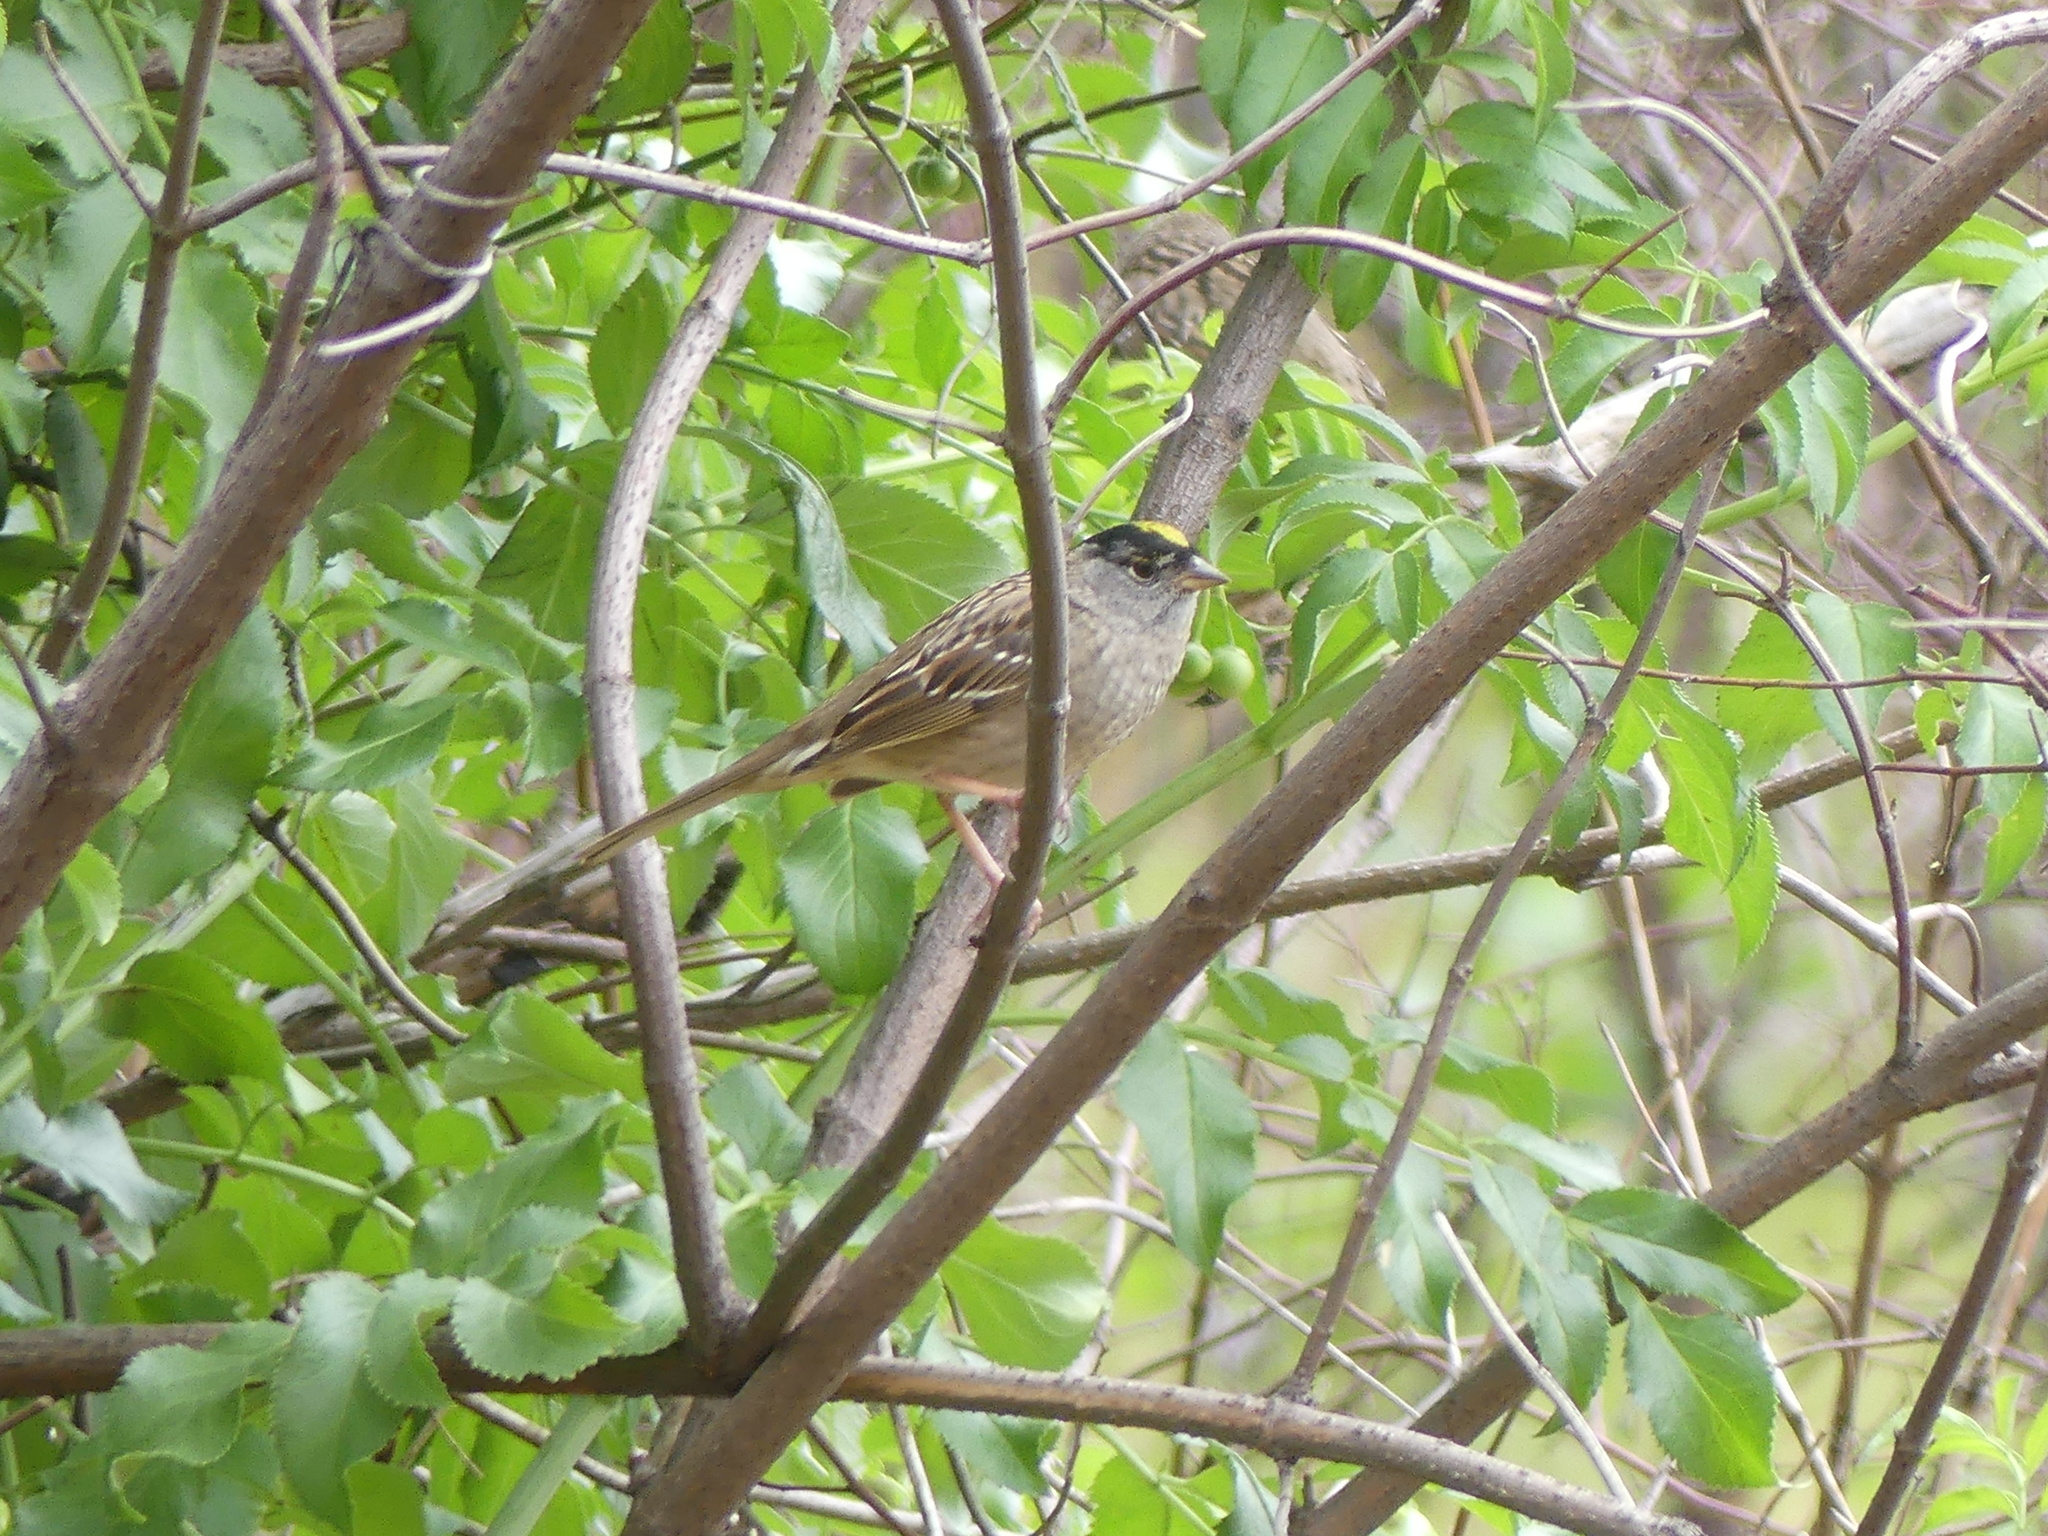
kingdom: Animalia
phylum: Chordata
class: Aves
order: Passeriformes
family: Passerellidae
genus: Zonotrichia
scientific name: Zonotrichia atricapilla
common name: Golden-crowned sparrow
